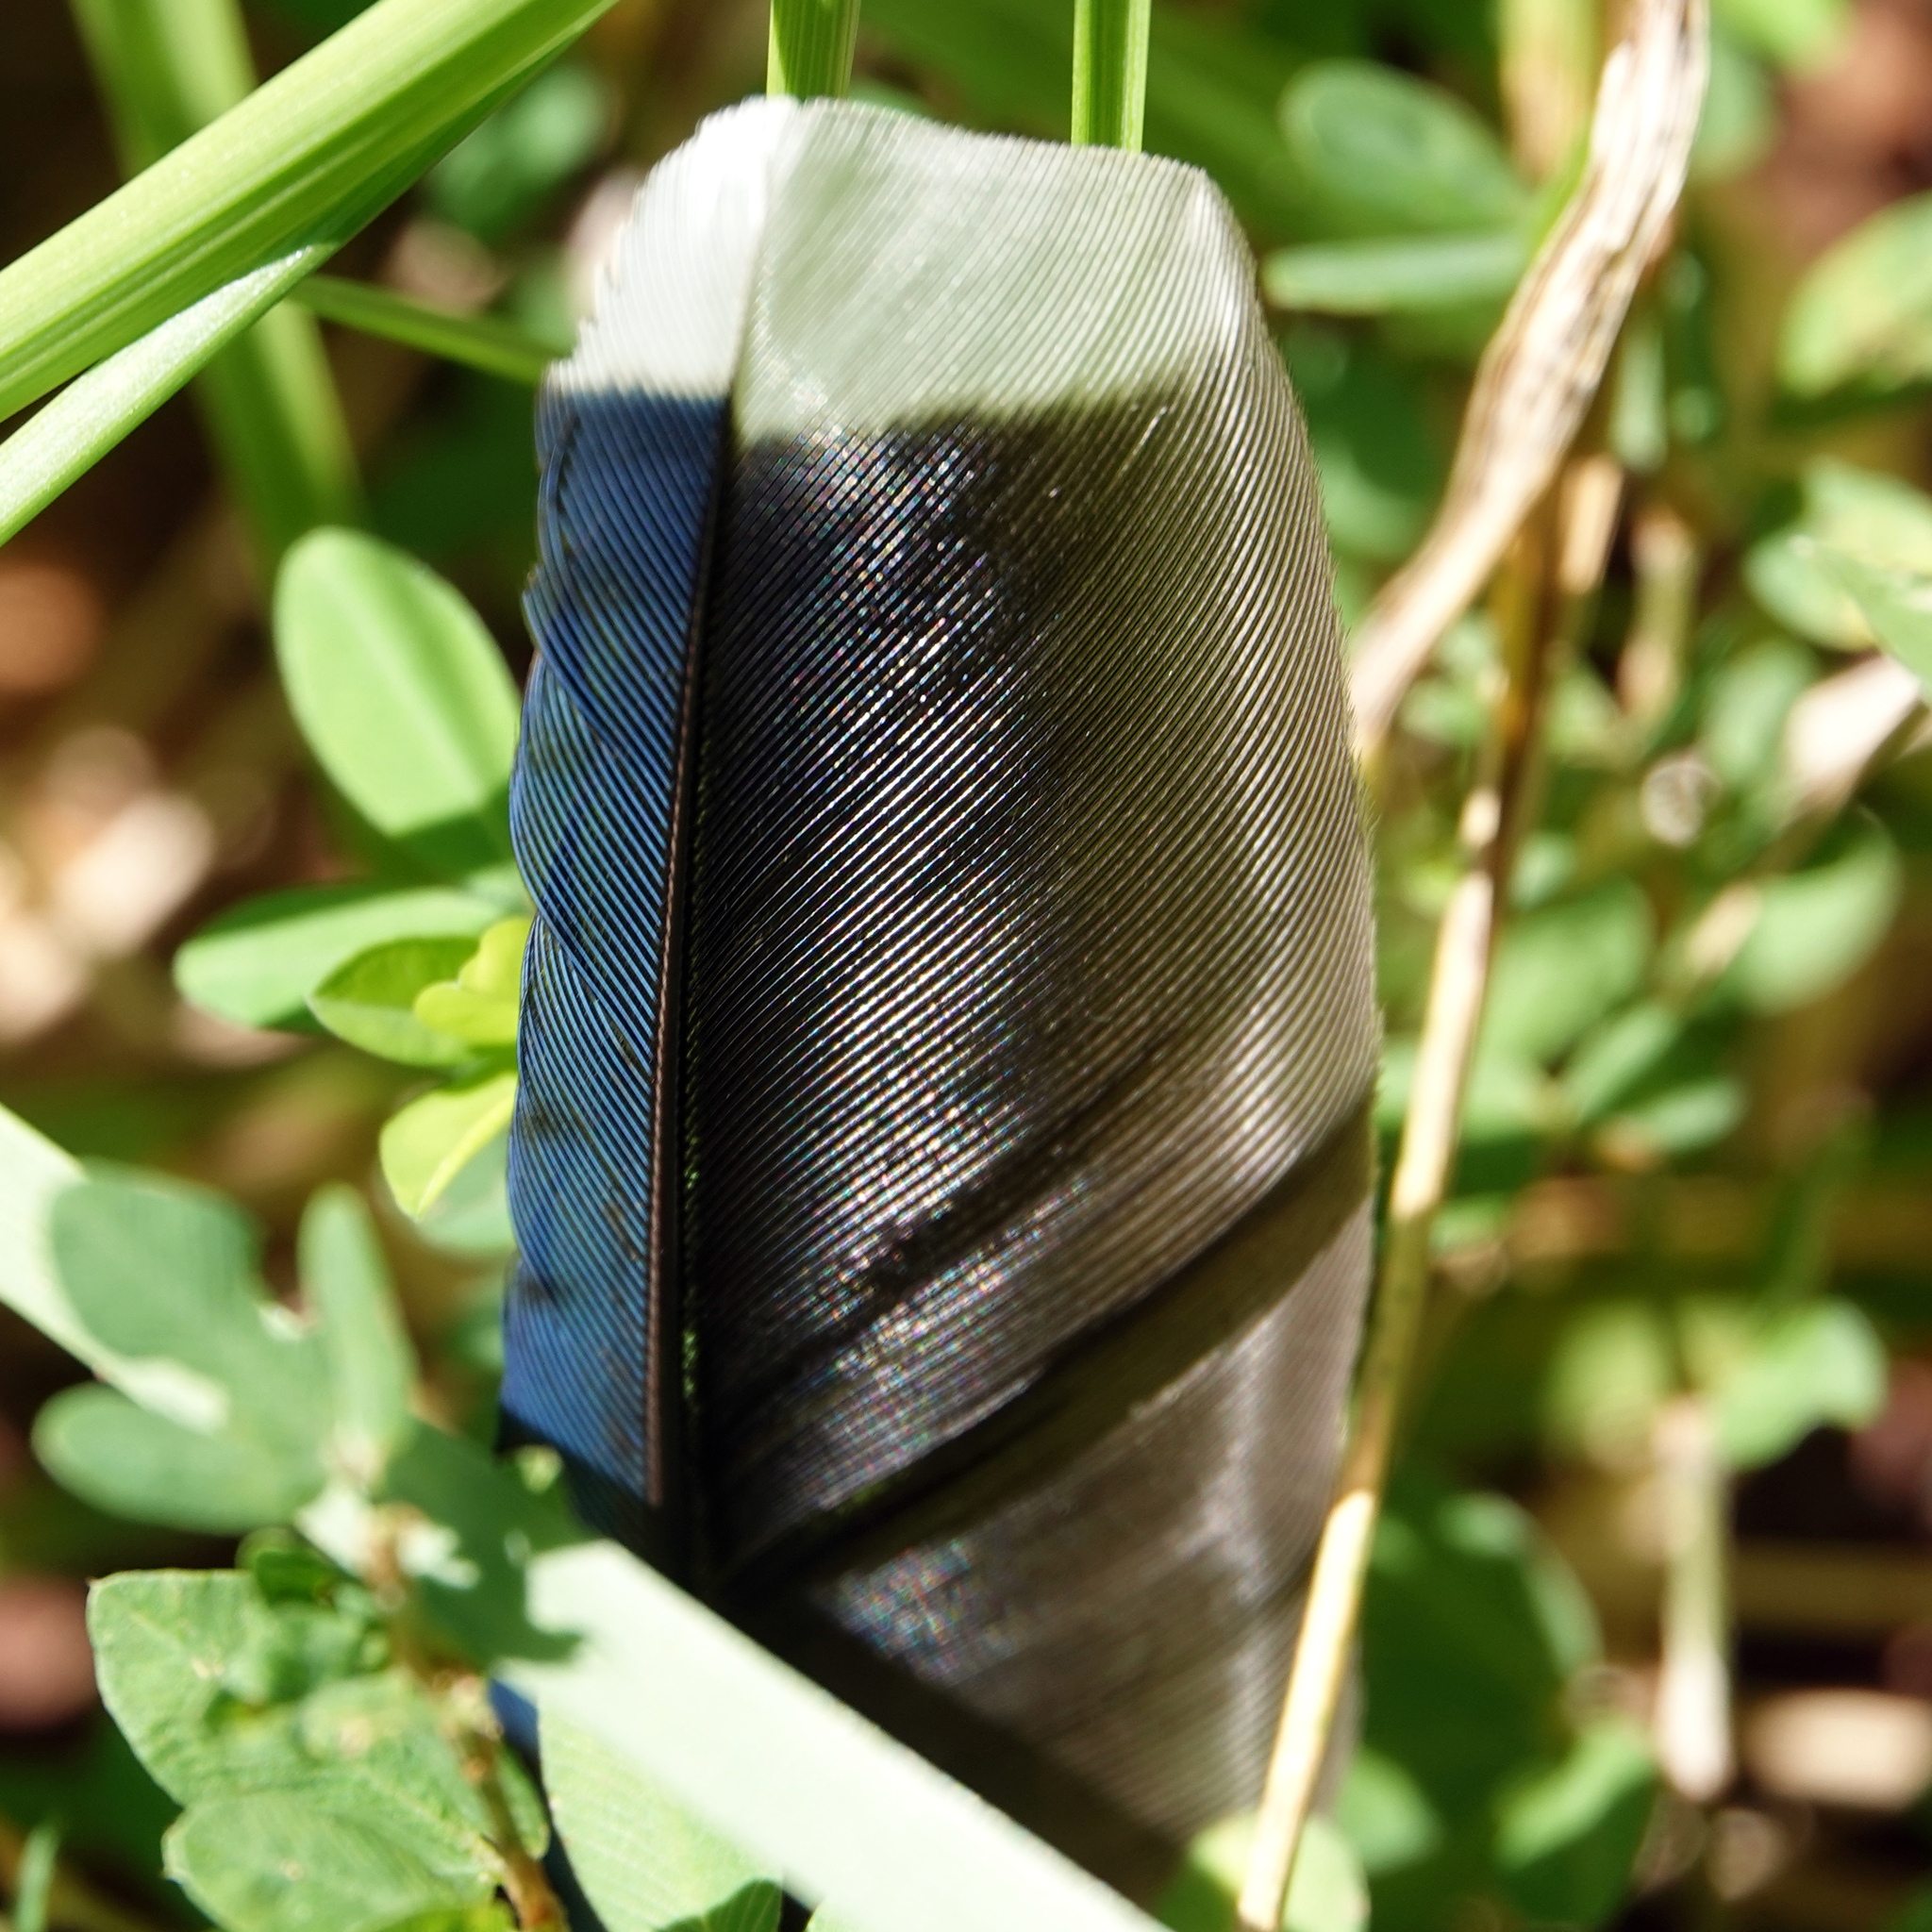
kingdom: Animalia
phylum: Chordata
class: Aves
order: Passeriformes
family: Corvidae
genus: Cyanocitta
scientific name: Cyanocitta cristata
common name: Blue jay
